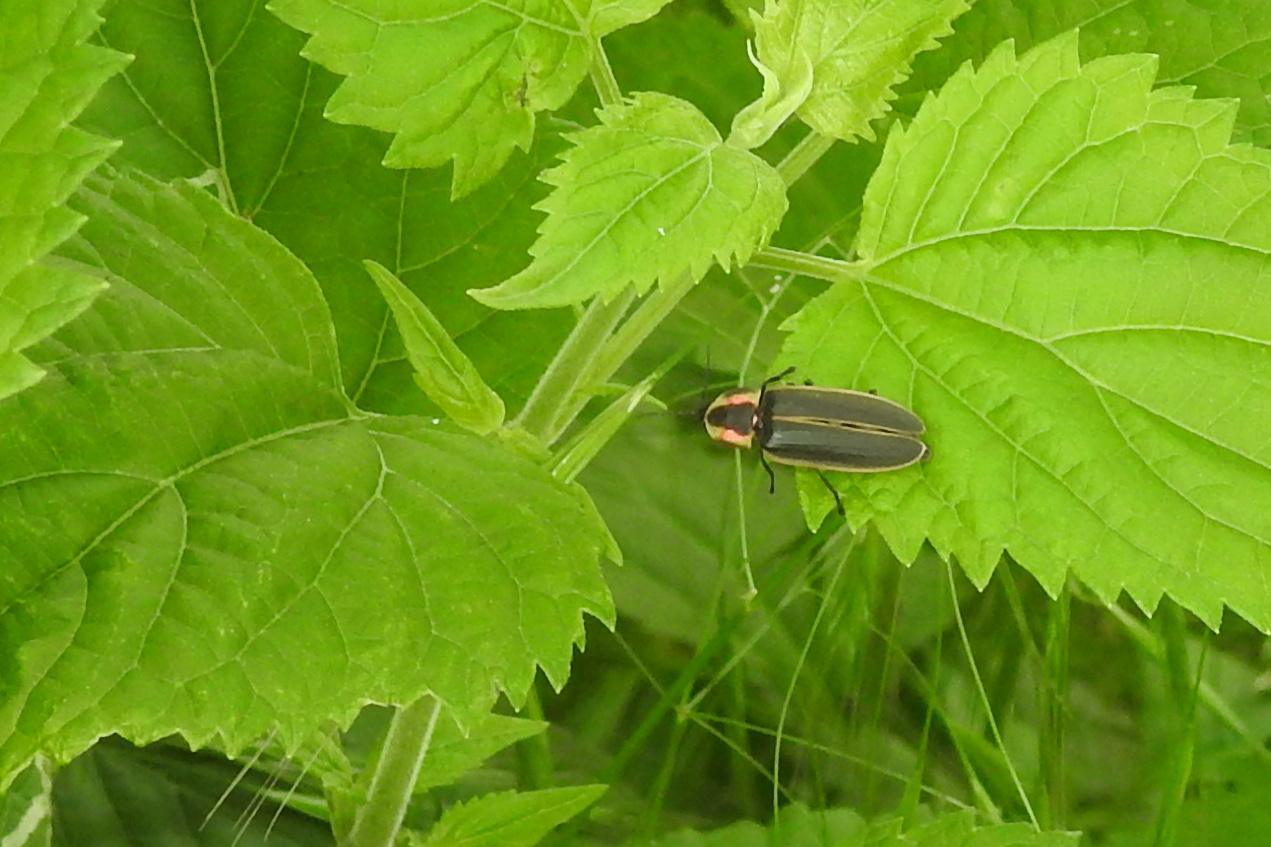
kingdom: Animalia
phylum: Arthropoda
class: Insecta
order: Coleoptera
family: Lampyridae
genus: Pyractomena
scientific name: Pyractomena borealis
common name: Northern firefly
